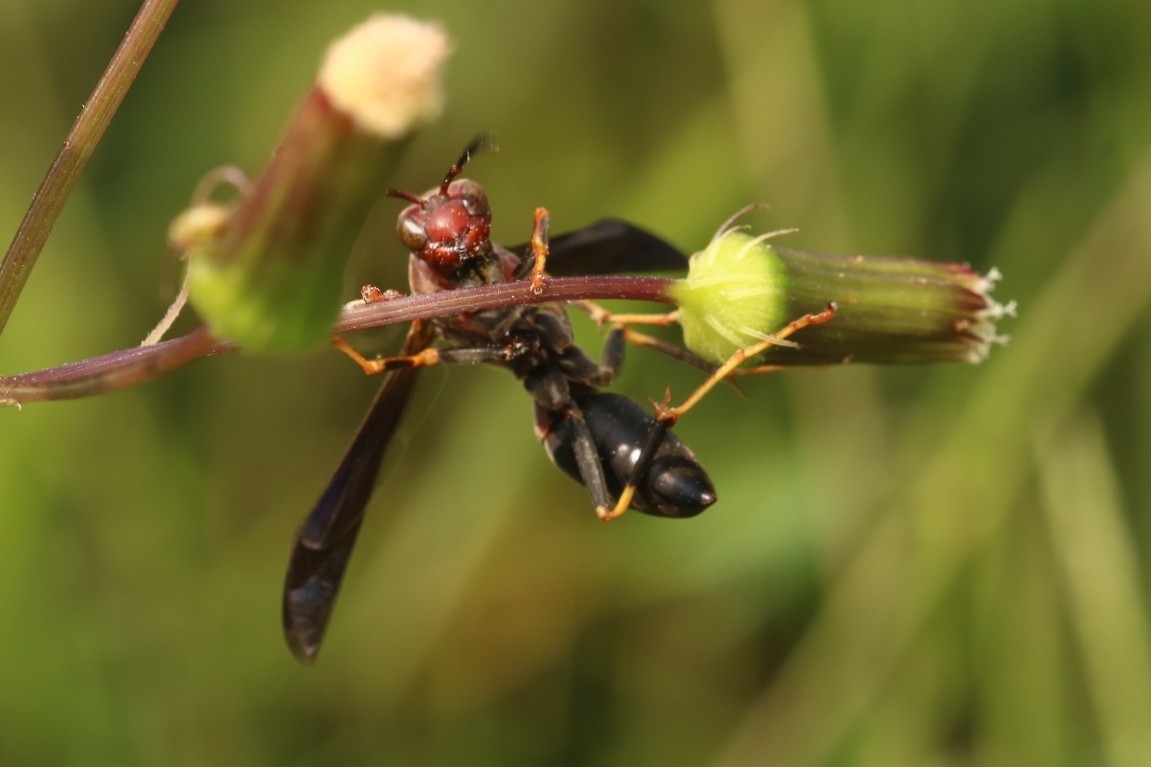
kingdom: Animalia
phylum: Arthropoda
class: Insecta
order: Hymenoptera
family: Eumenidae
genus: Polistes
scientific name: Polistes metricus
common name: Metric paper wasp
